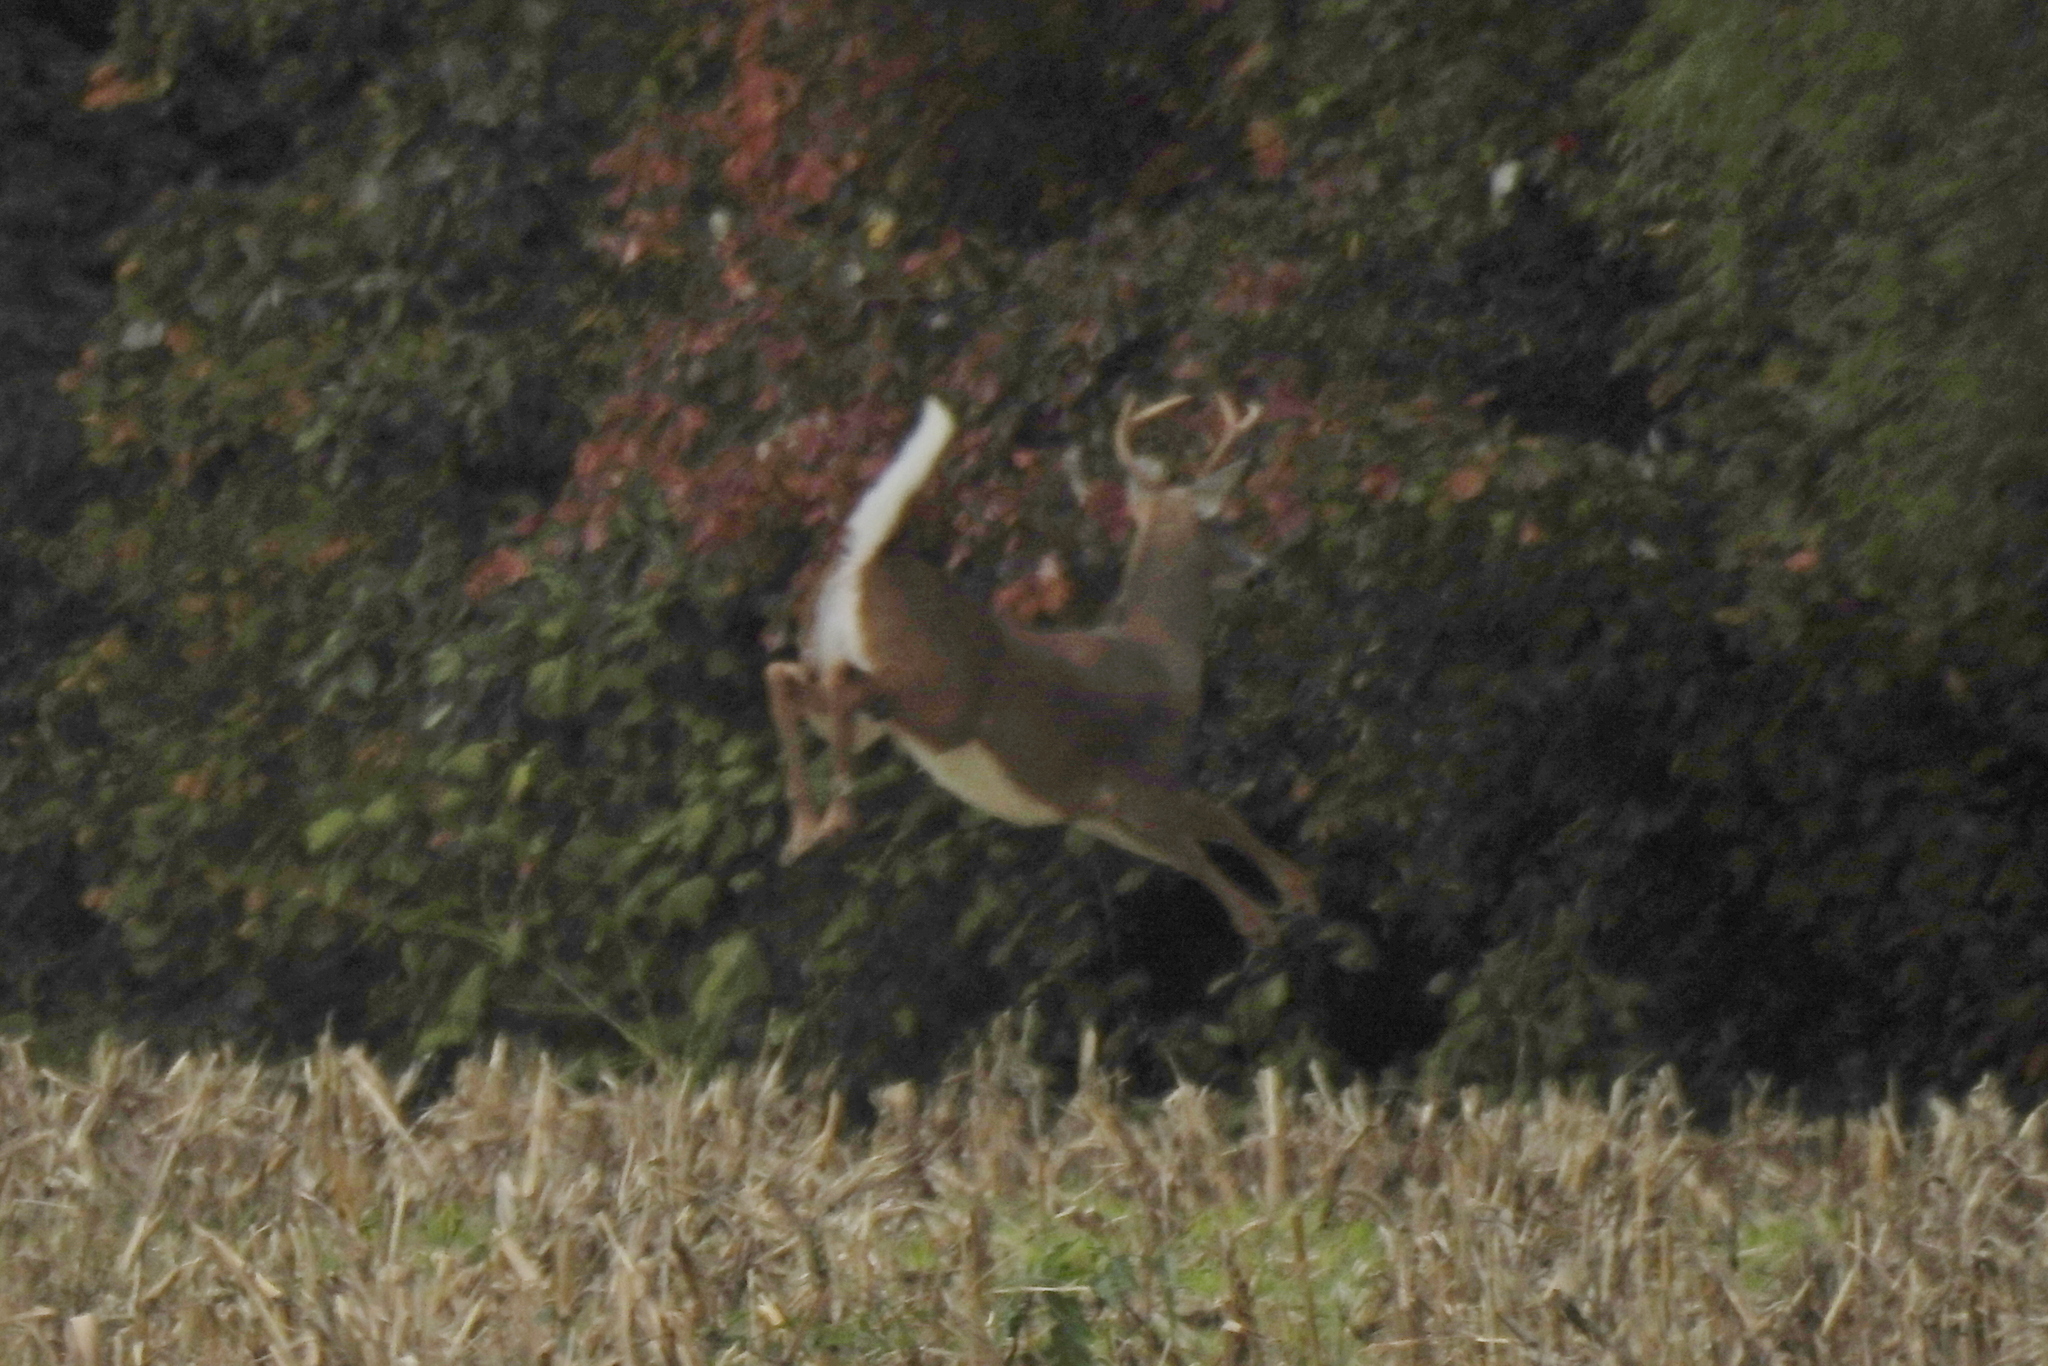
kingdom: Animalia
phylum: Chordata
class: Mammalia
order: Artiodactyla
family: Cervidae
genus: Odocoileus
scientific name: Odocoileus virginianus
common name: White-tailed deer
